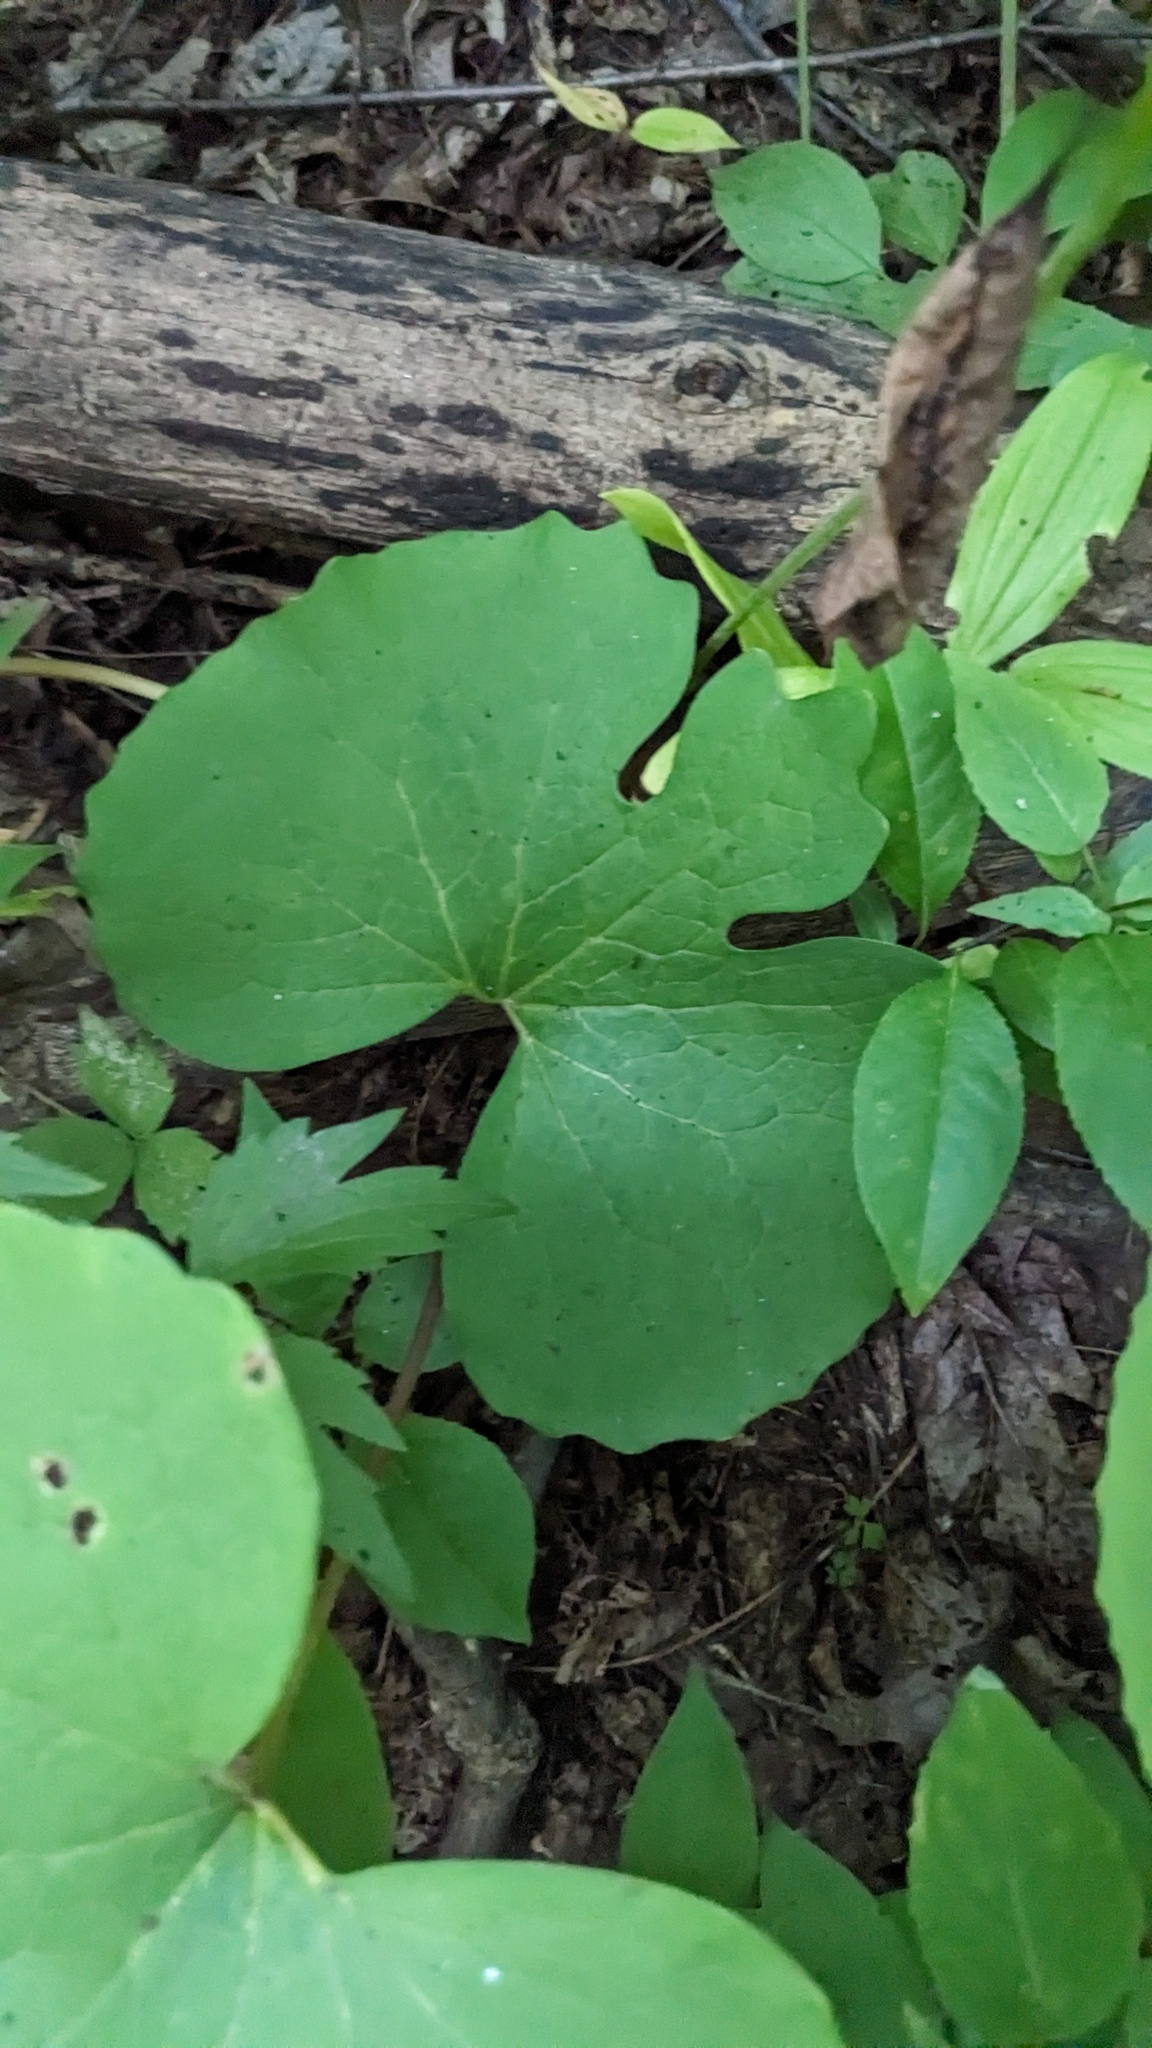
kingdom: Plantae
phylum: Tracheophyta
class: Magnoliopsida
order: Ranunculales
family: Papaveraceae
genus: Sanguinaria
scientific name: Sanguinaria canadensis
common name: Bloodroot
